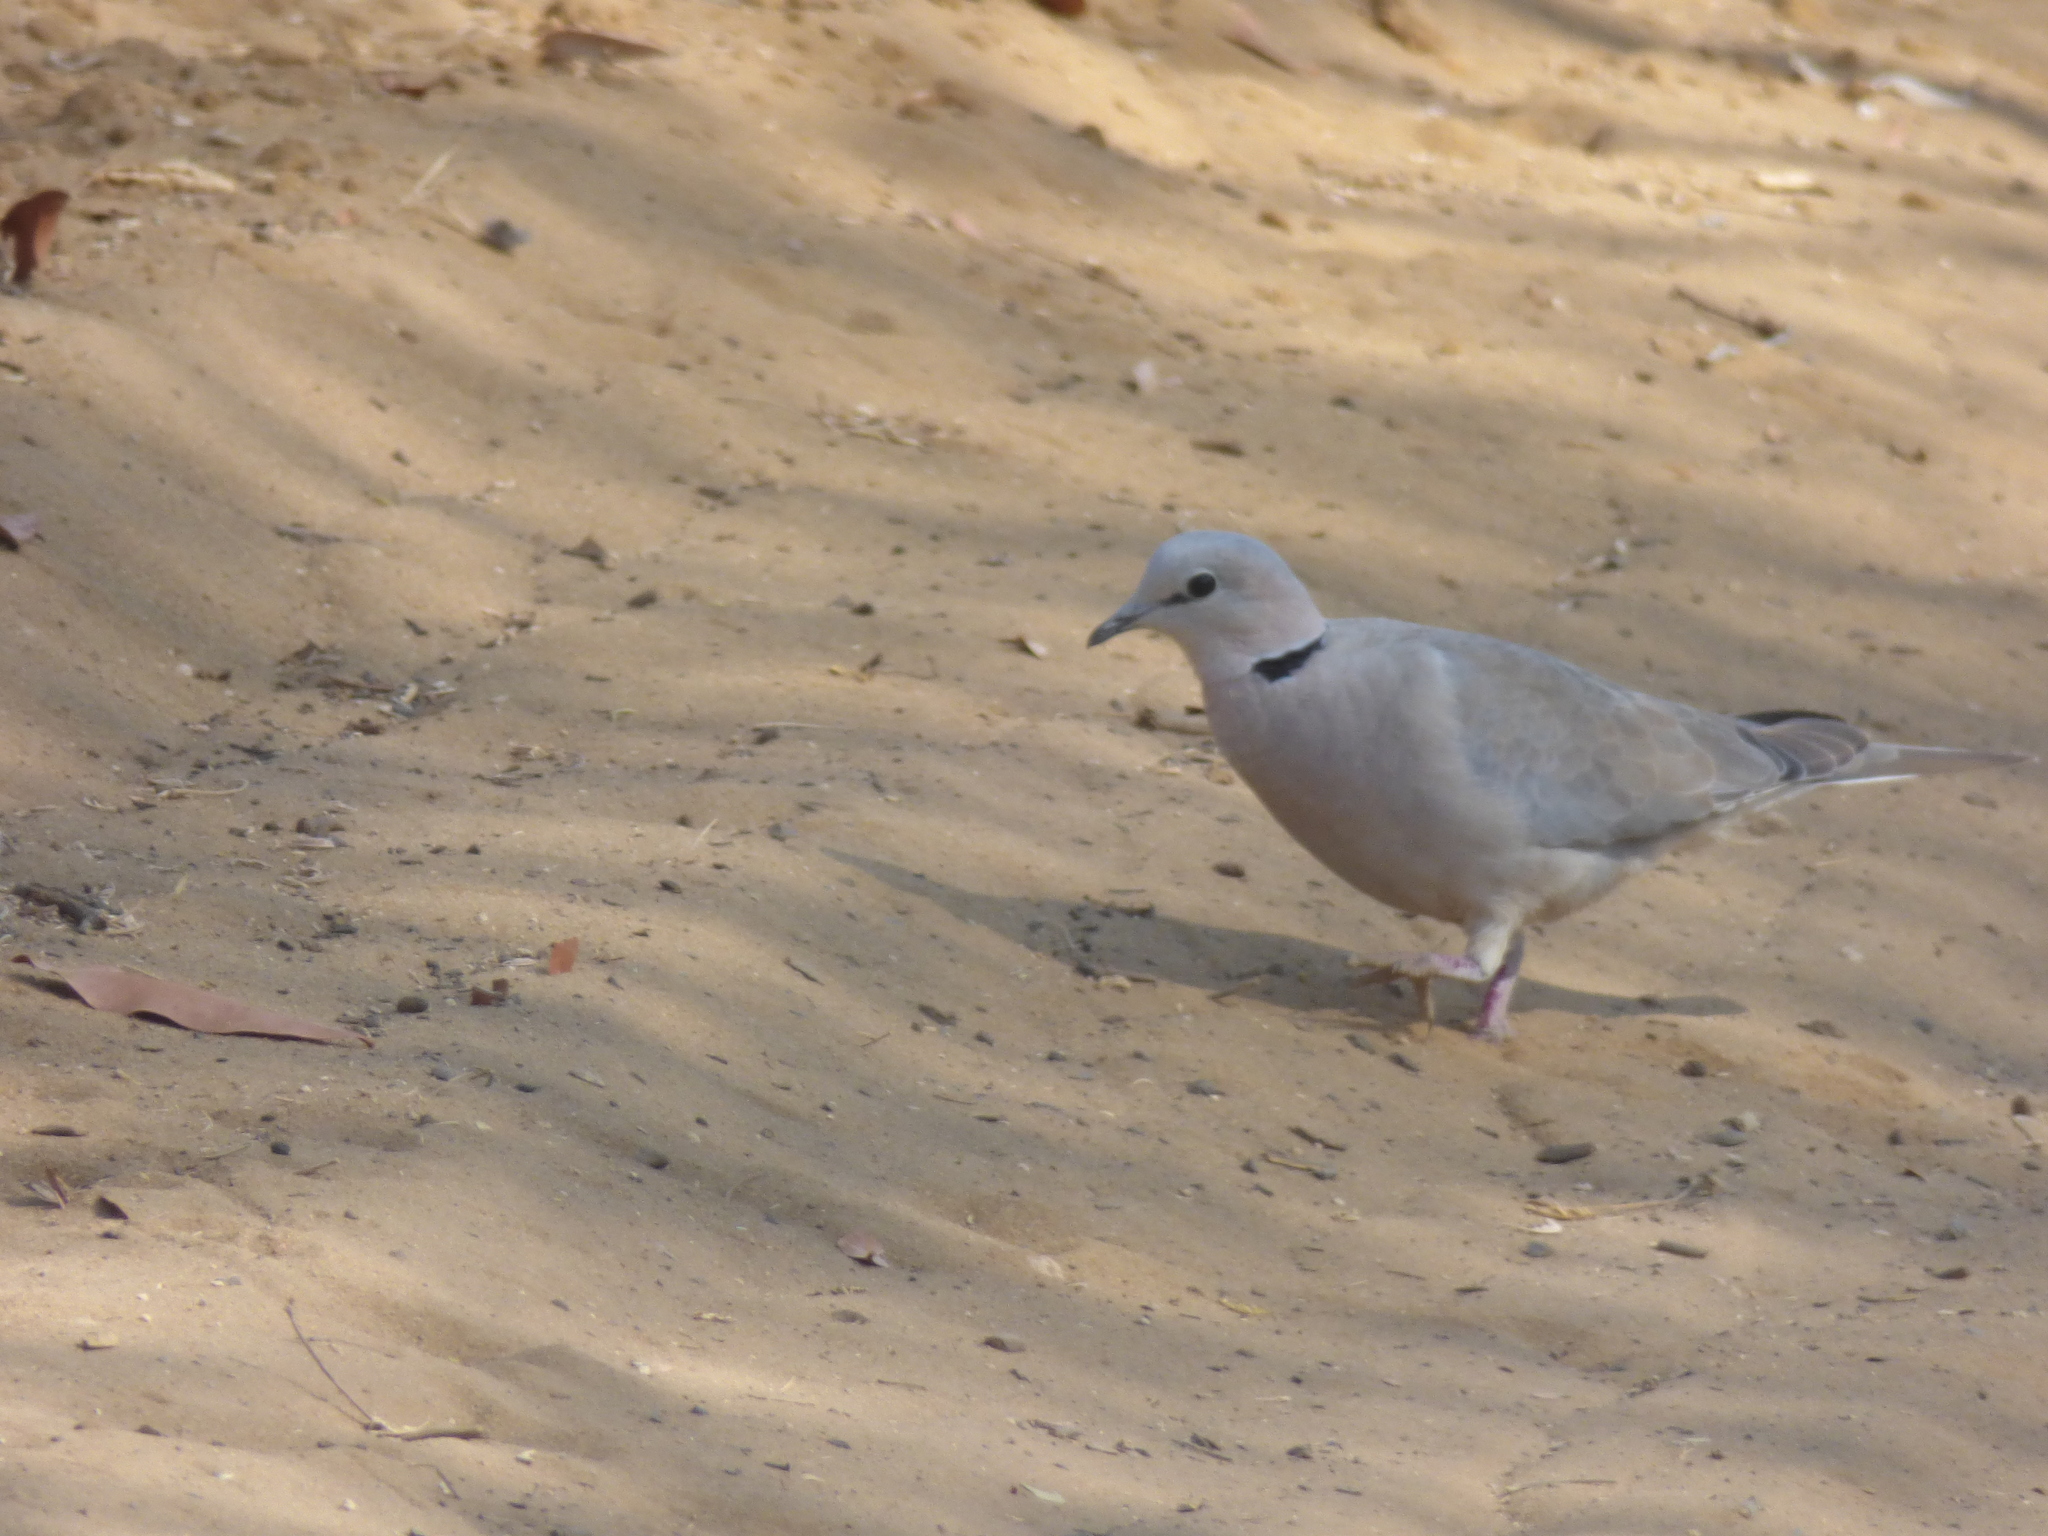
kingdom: Animalia
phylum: Chordata
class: Aves
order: Columbiformes
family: Columbidae
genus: Streptopelia
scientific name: Streptopelia capicola
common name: Ring-necked dove
